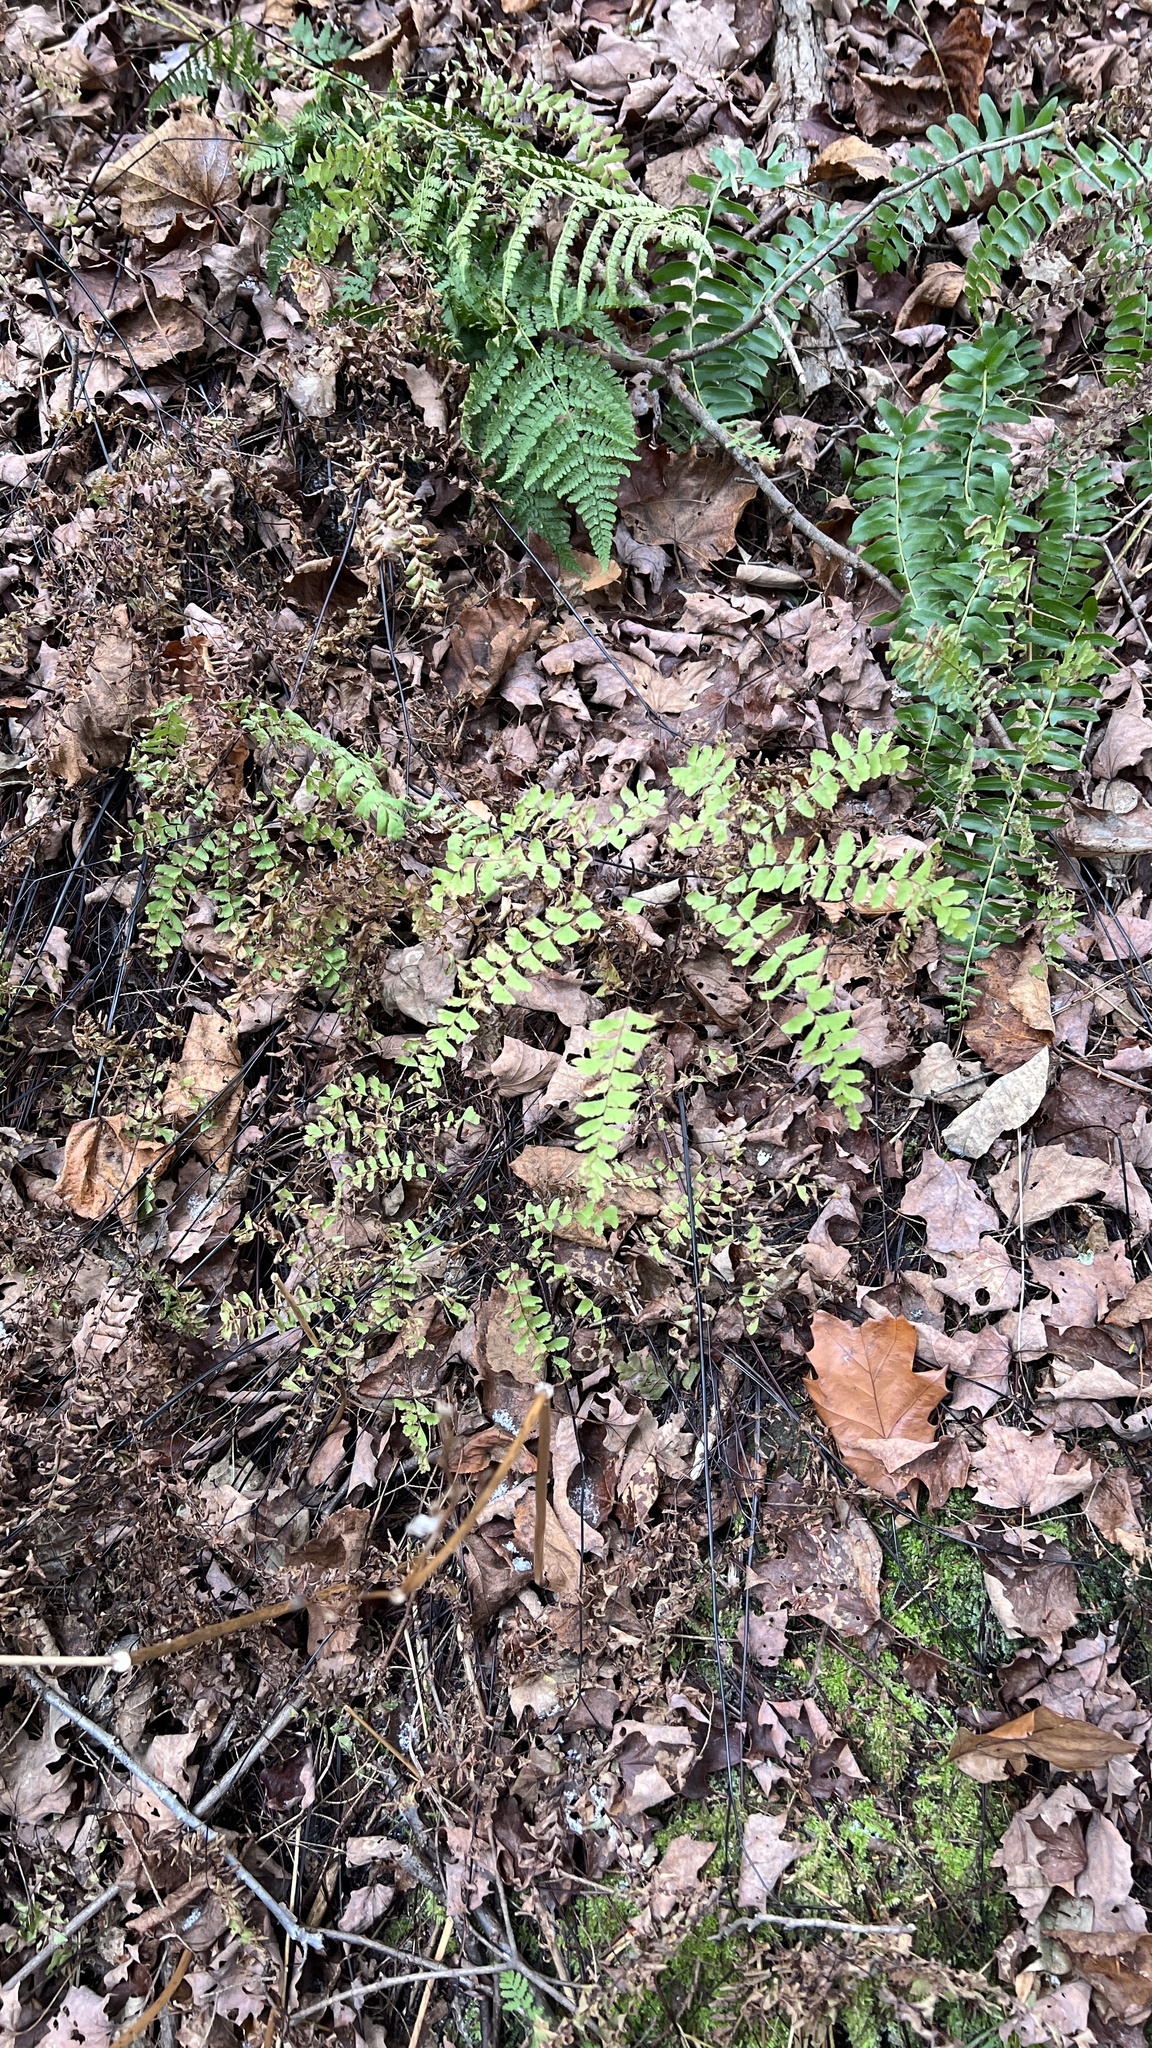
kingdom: Plantae
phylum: Tracheophyta
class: Polypodiopsida
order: Polypodiales
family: Pteridaceae
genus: Adiantum
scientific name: Adiantum pedatum
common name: Five-finger fern
